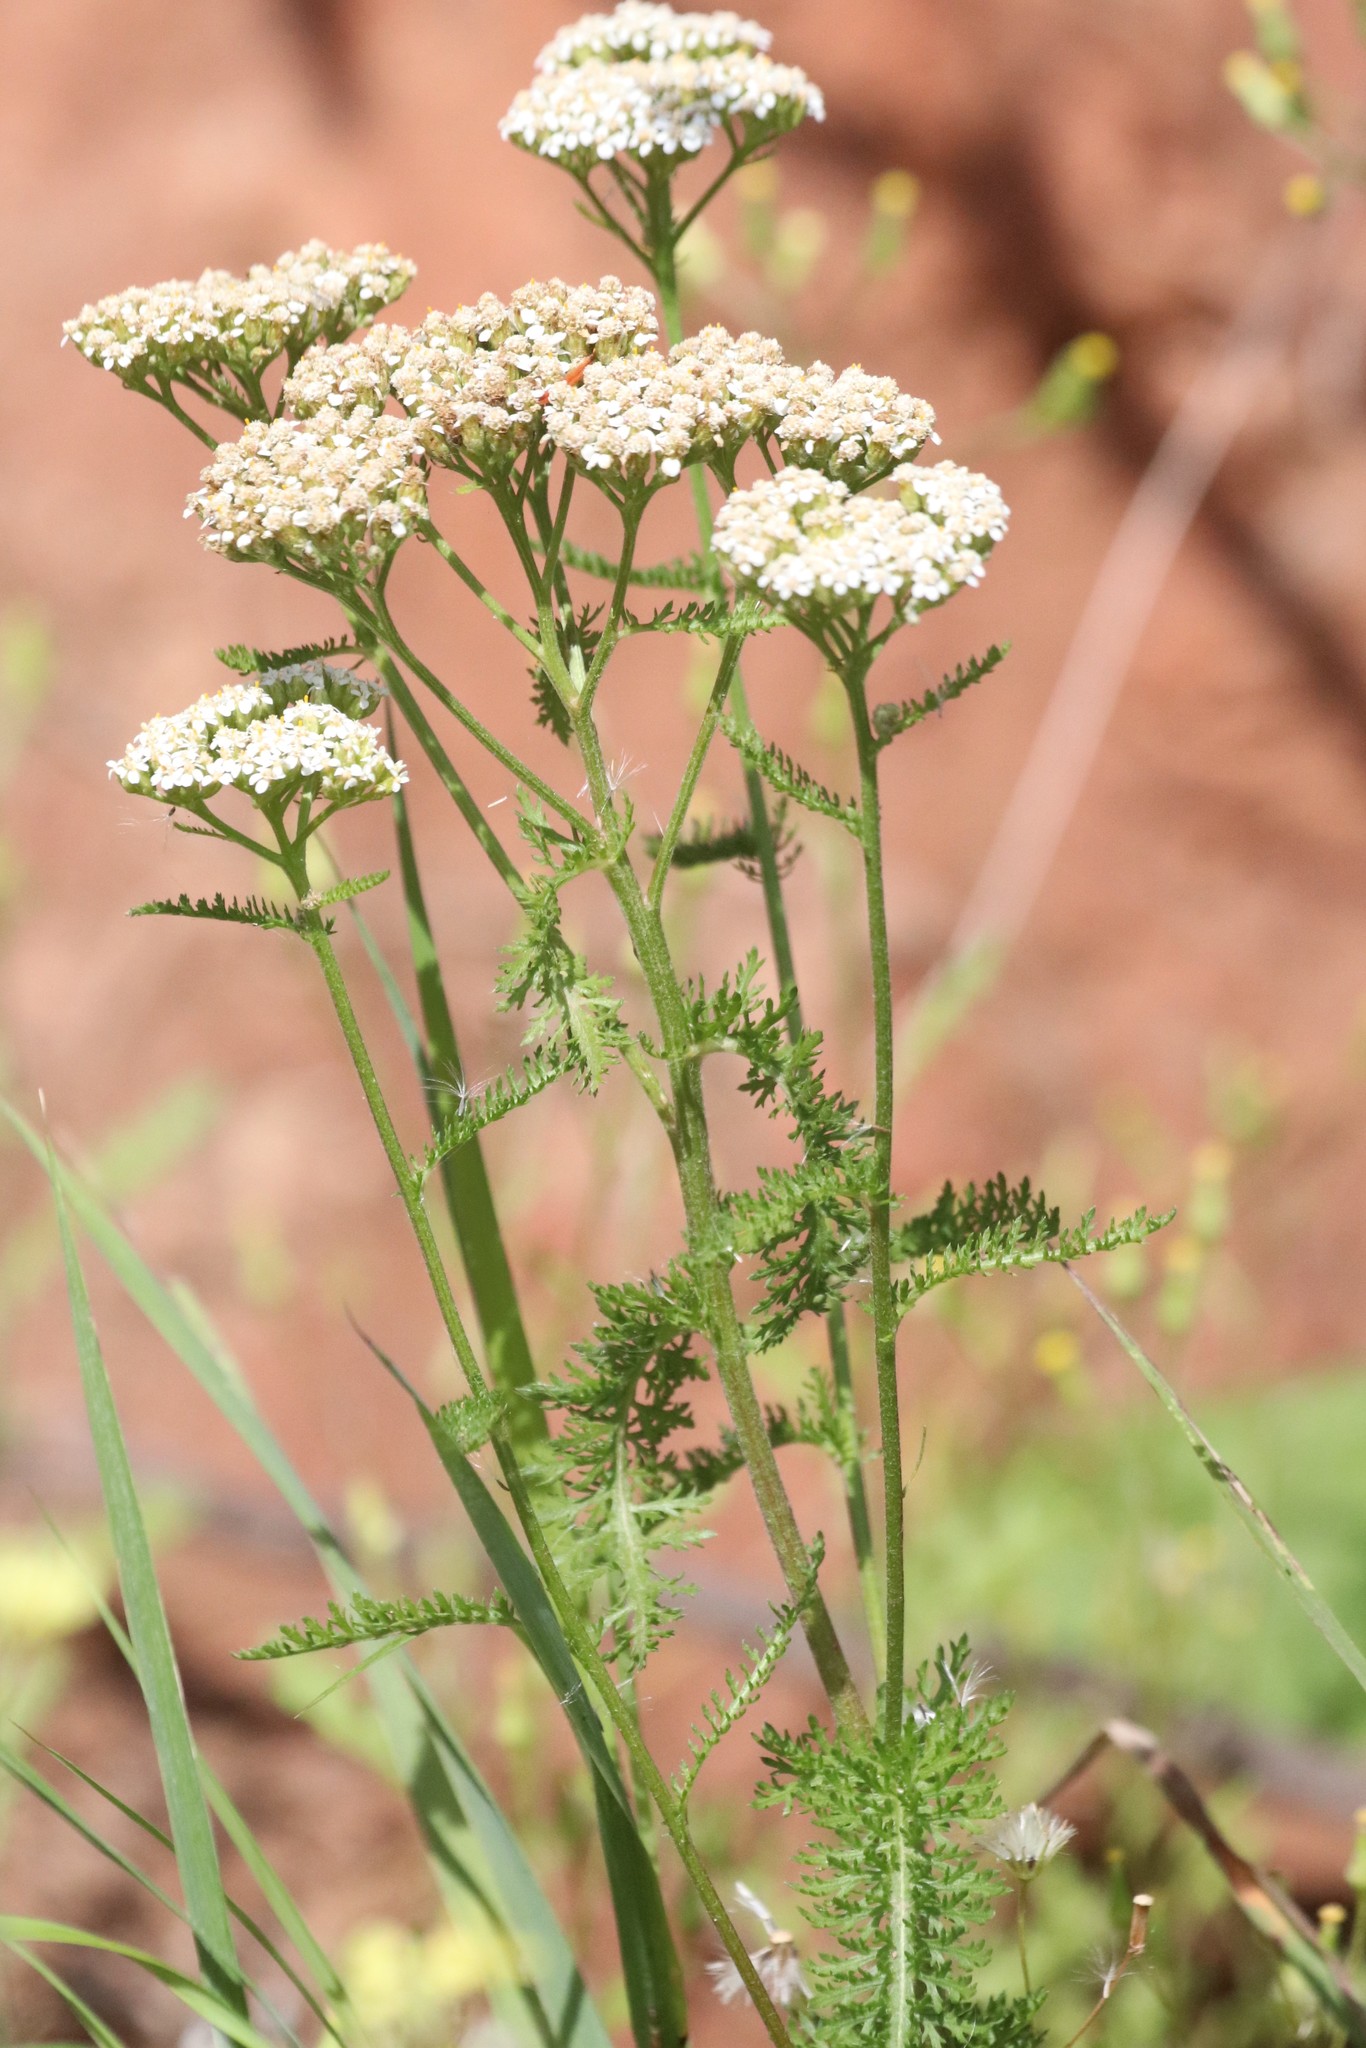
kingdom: Plantae
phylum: Tracheophyta
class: Magnoliopsida
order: Asterales
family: Asteraceae
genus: Achillea
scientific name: Achillea millefolium
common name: Yarrow
